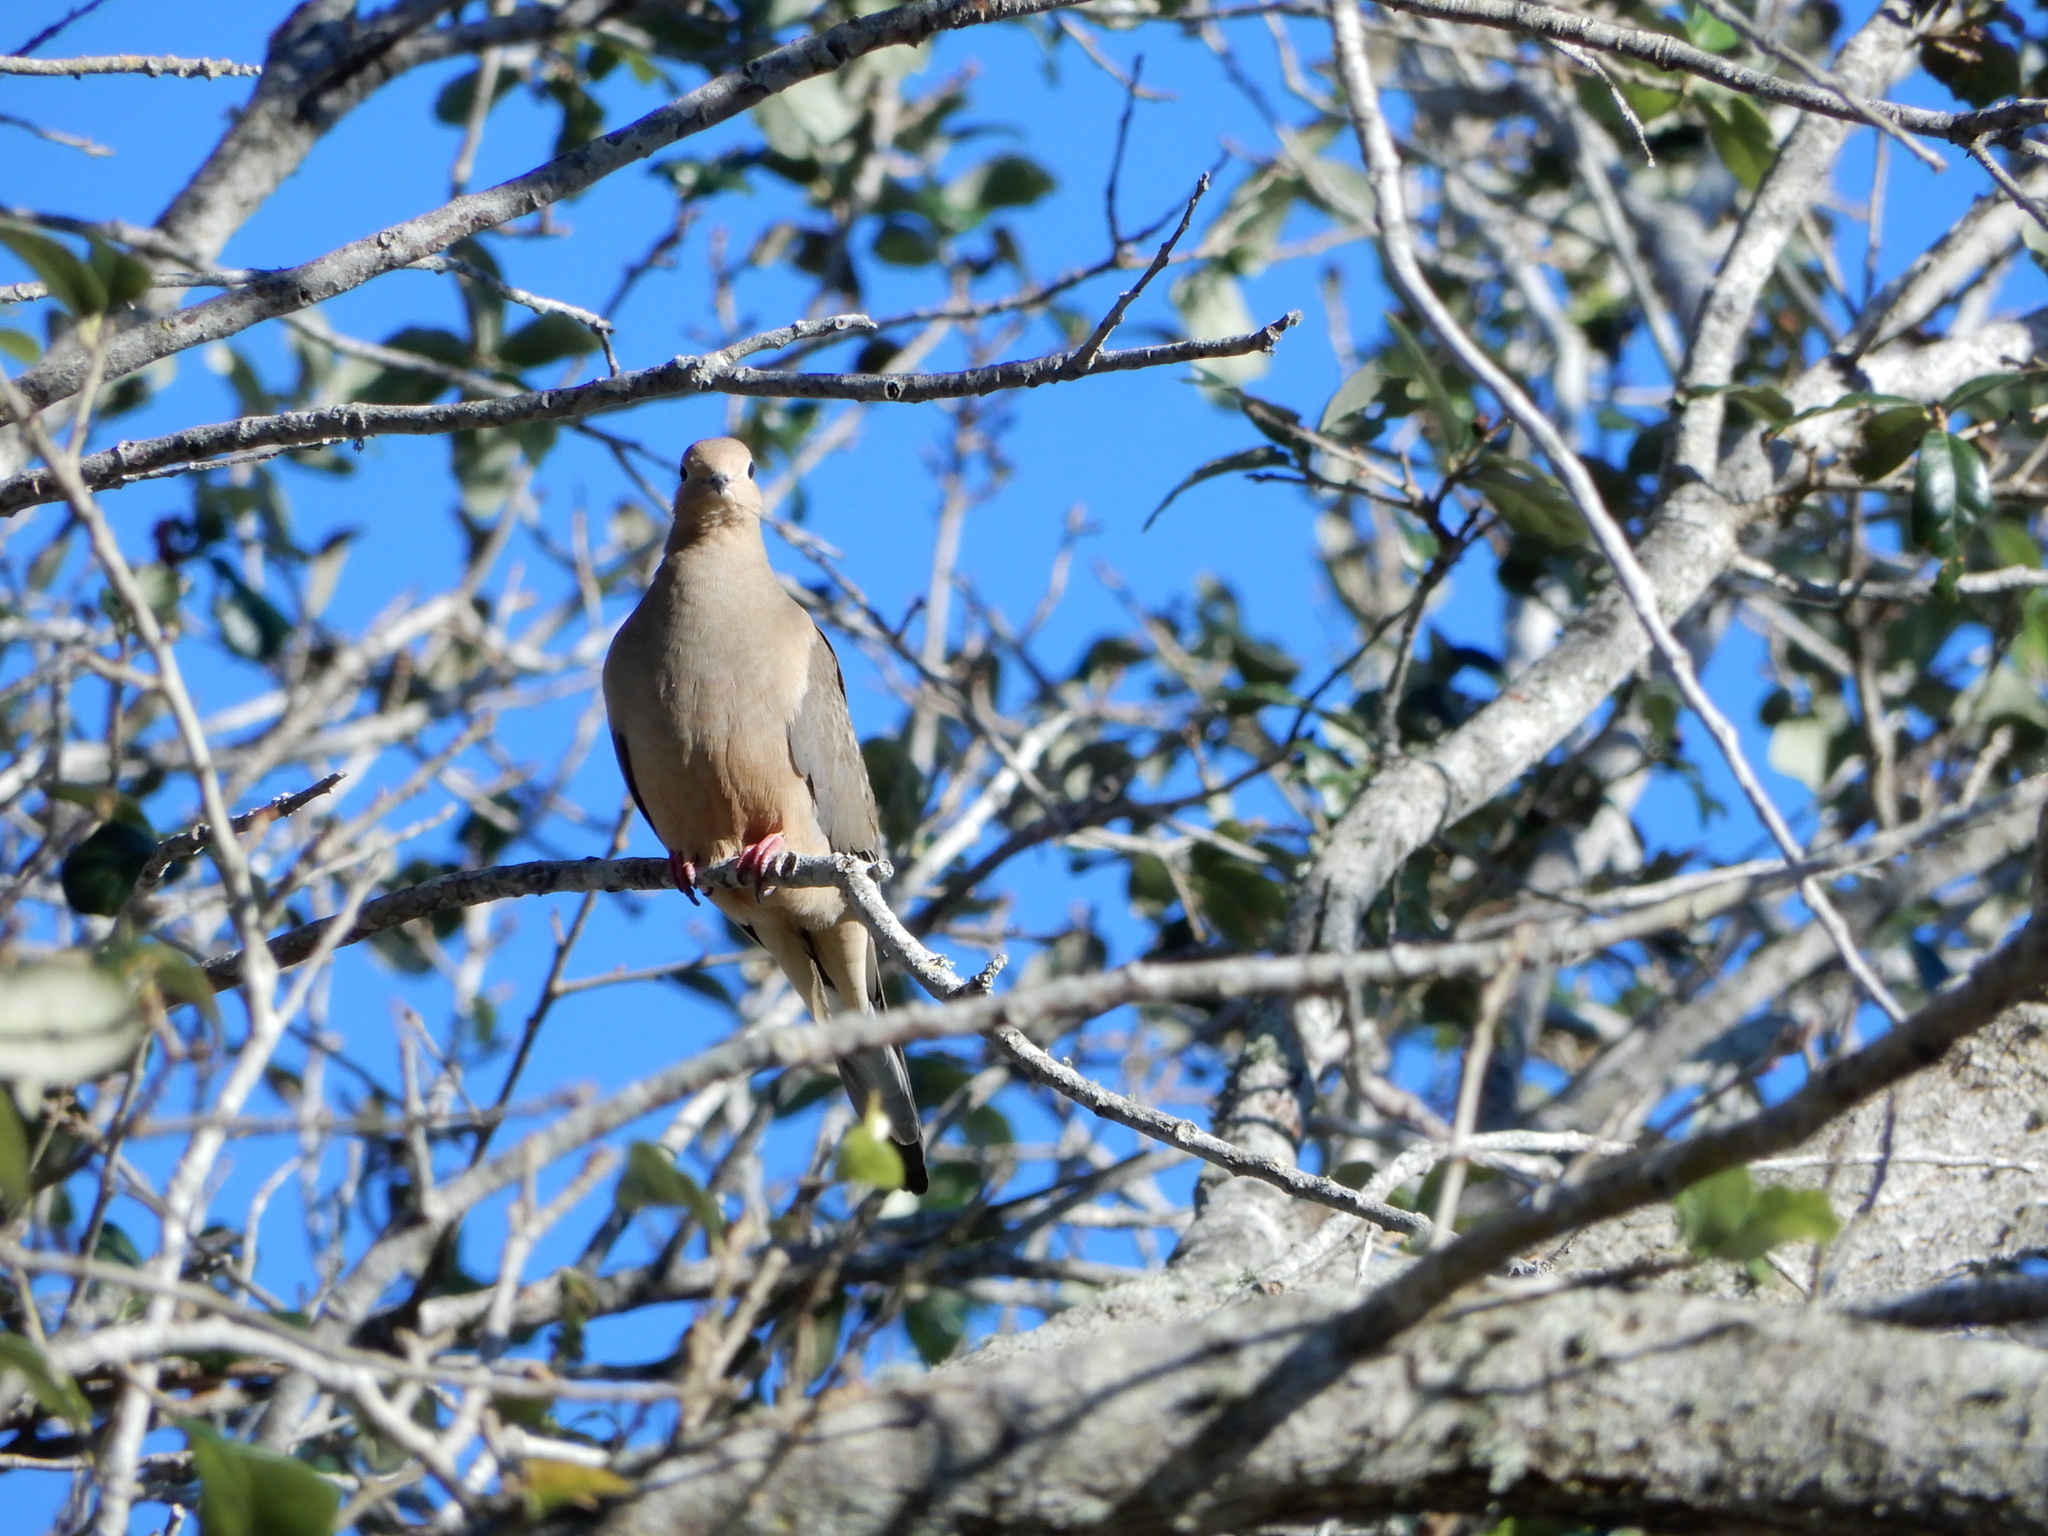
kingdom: Animalia
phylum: Chordata
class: Aves
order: Columbiformes
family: Columbidae
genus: Zenaida
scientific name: Zenaida macroura
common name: Mourning dove
